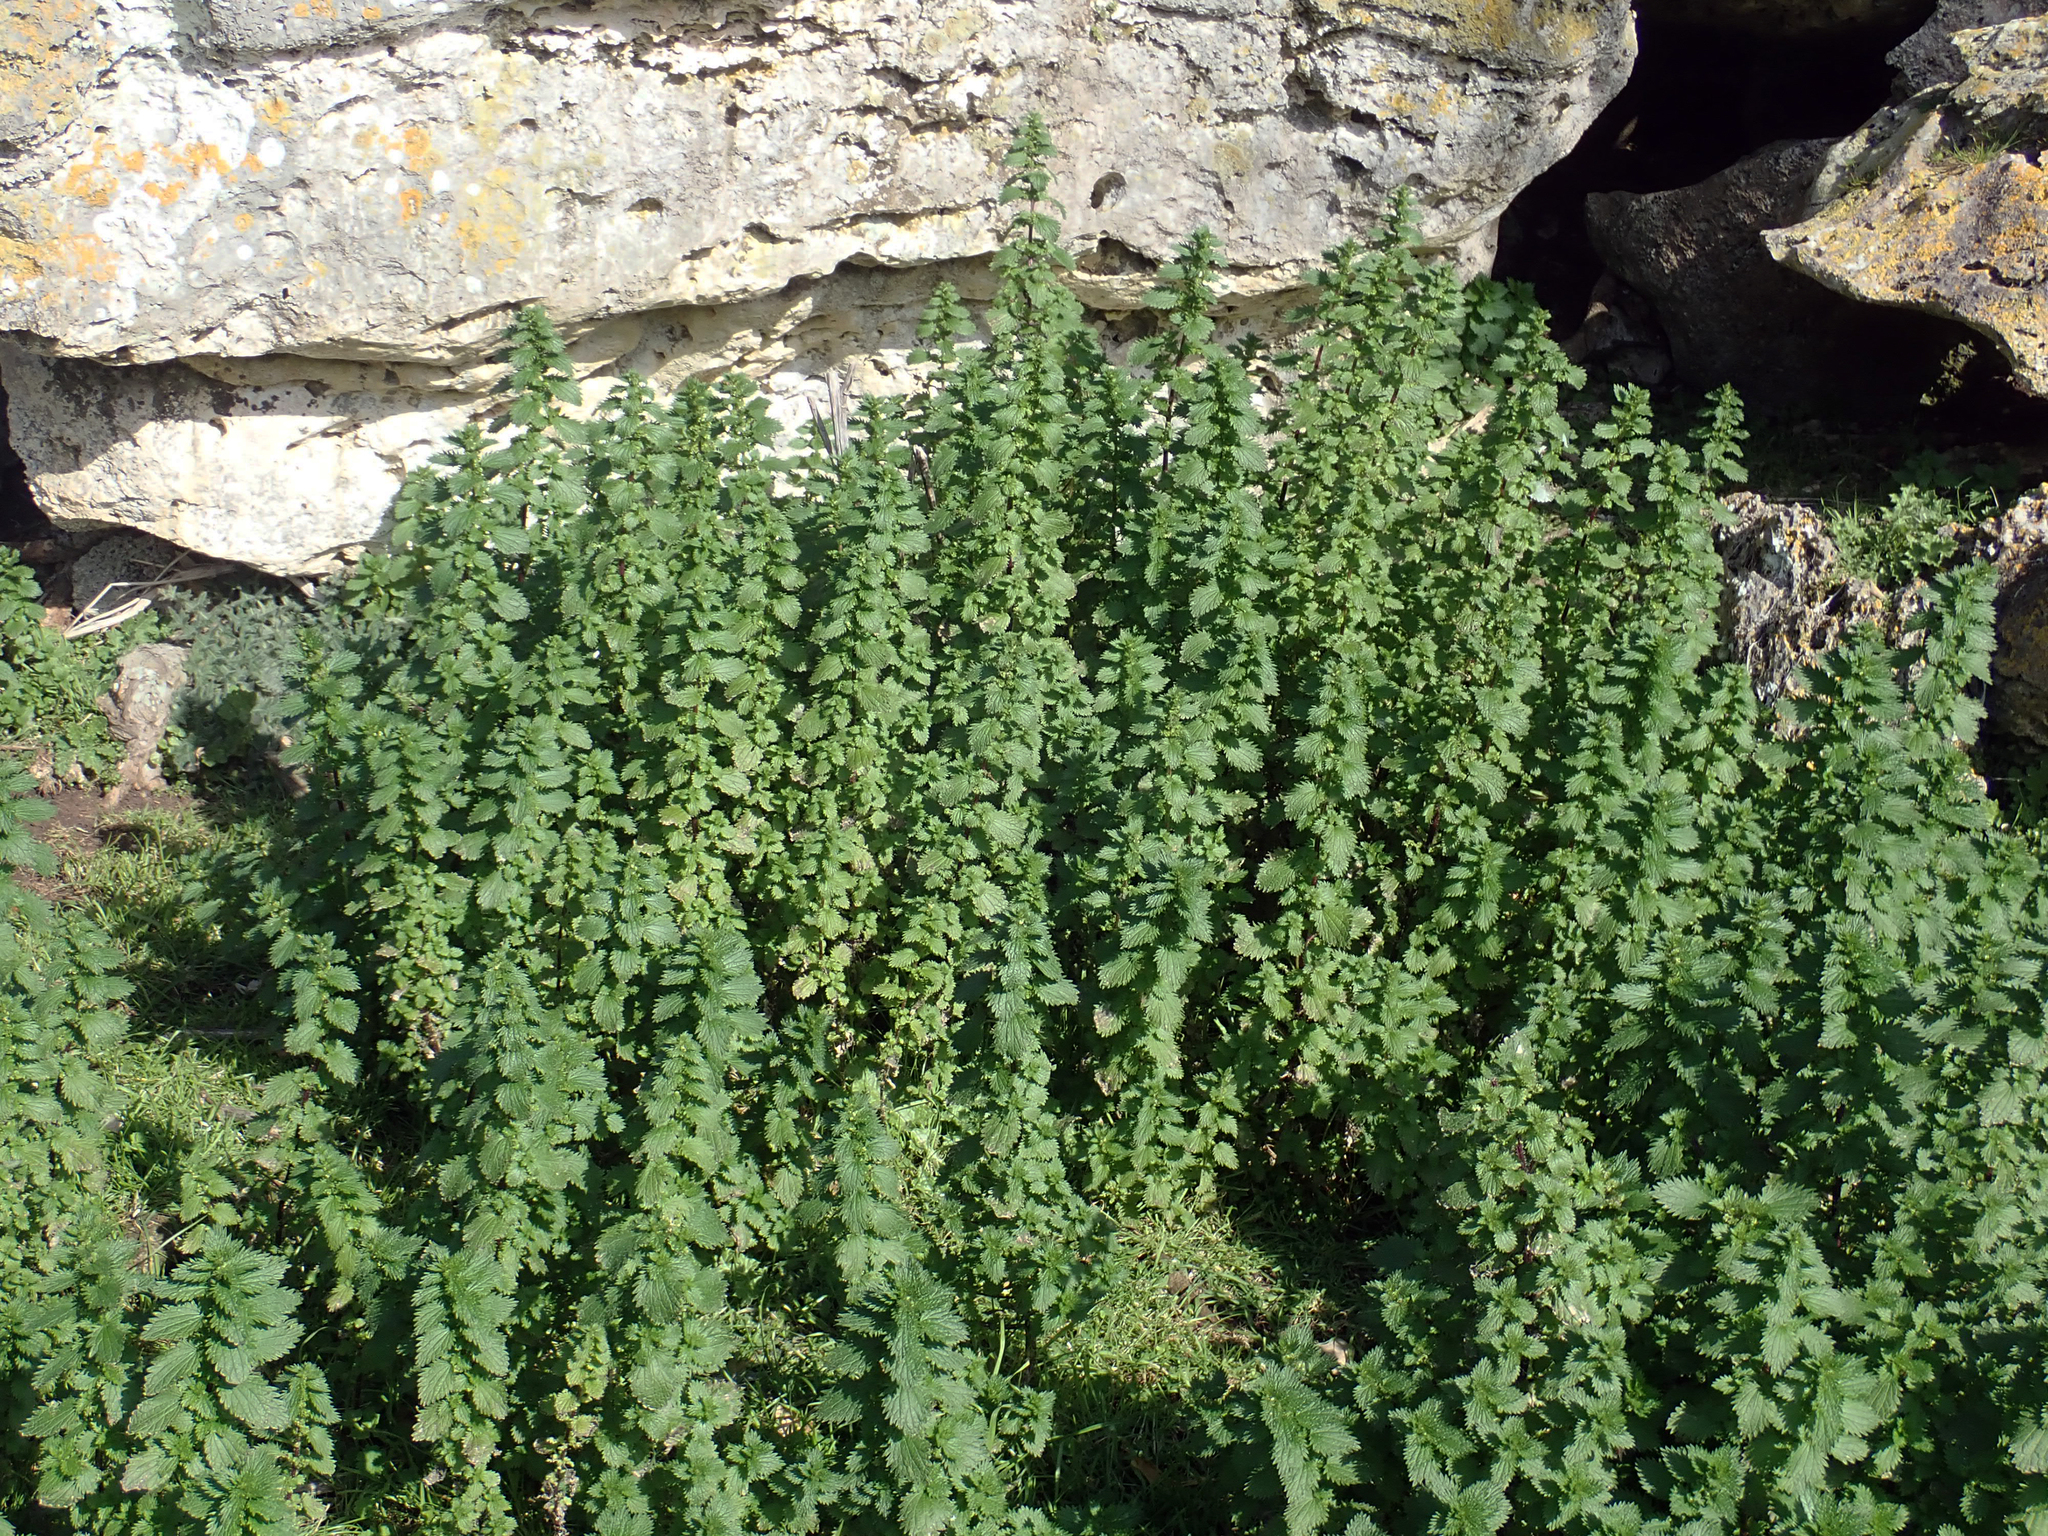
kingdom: Plantae
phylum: Tracheophyta
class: Magnoliopsida
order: Rosales
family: Urticaceae
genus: Urtica
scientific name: Urtica urens
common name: Dwarf nettle
